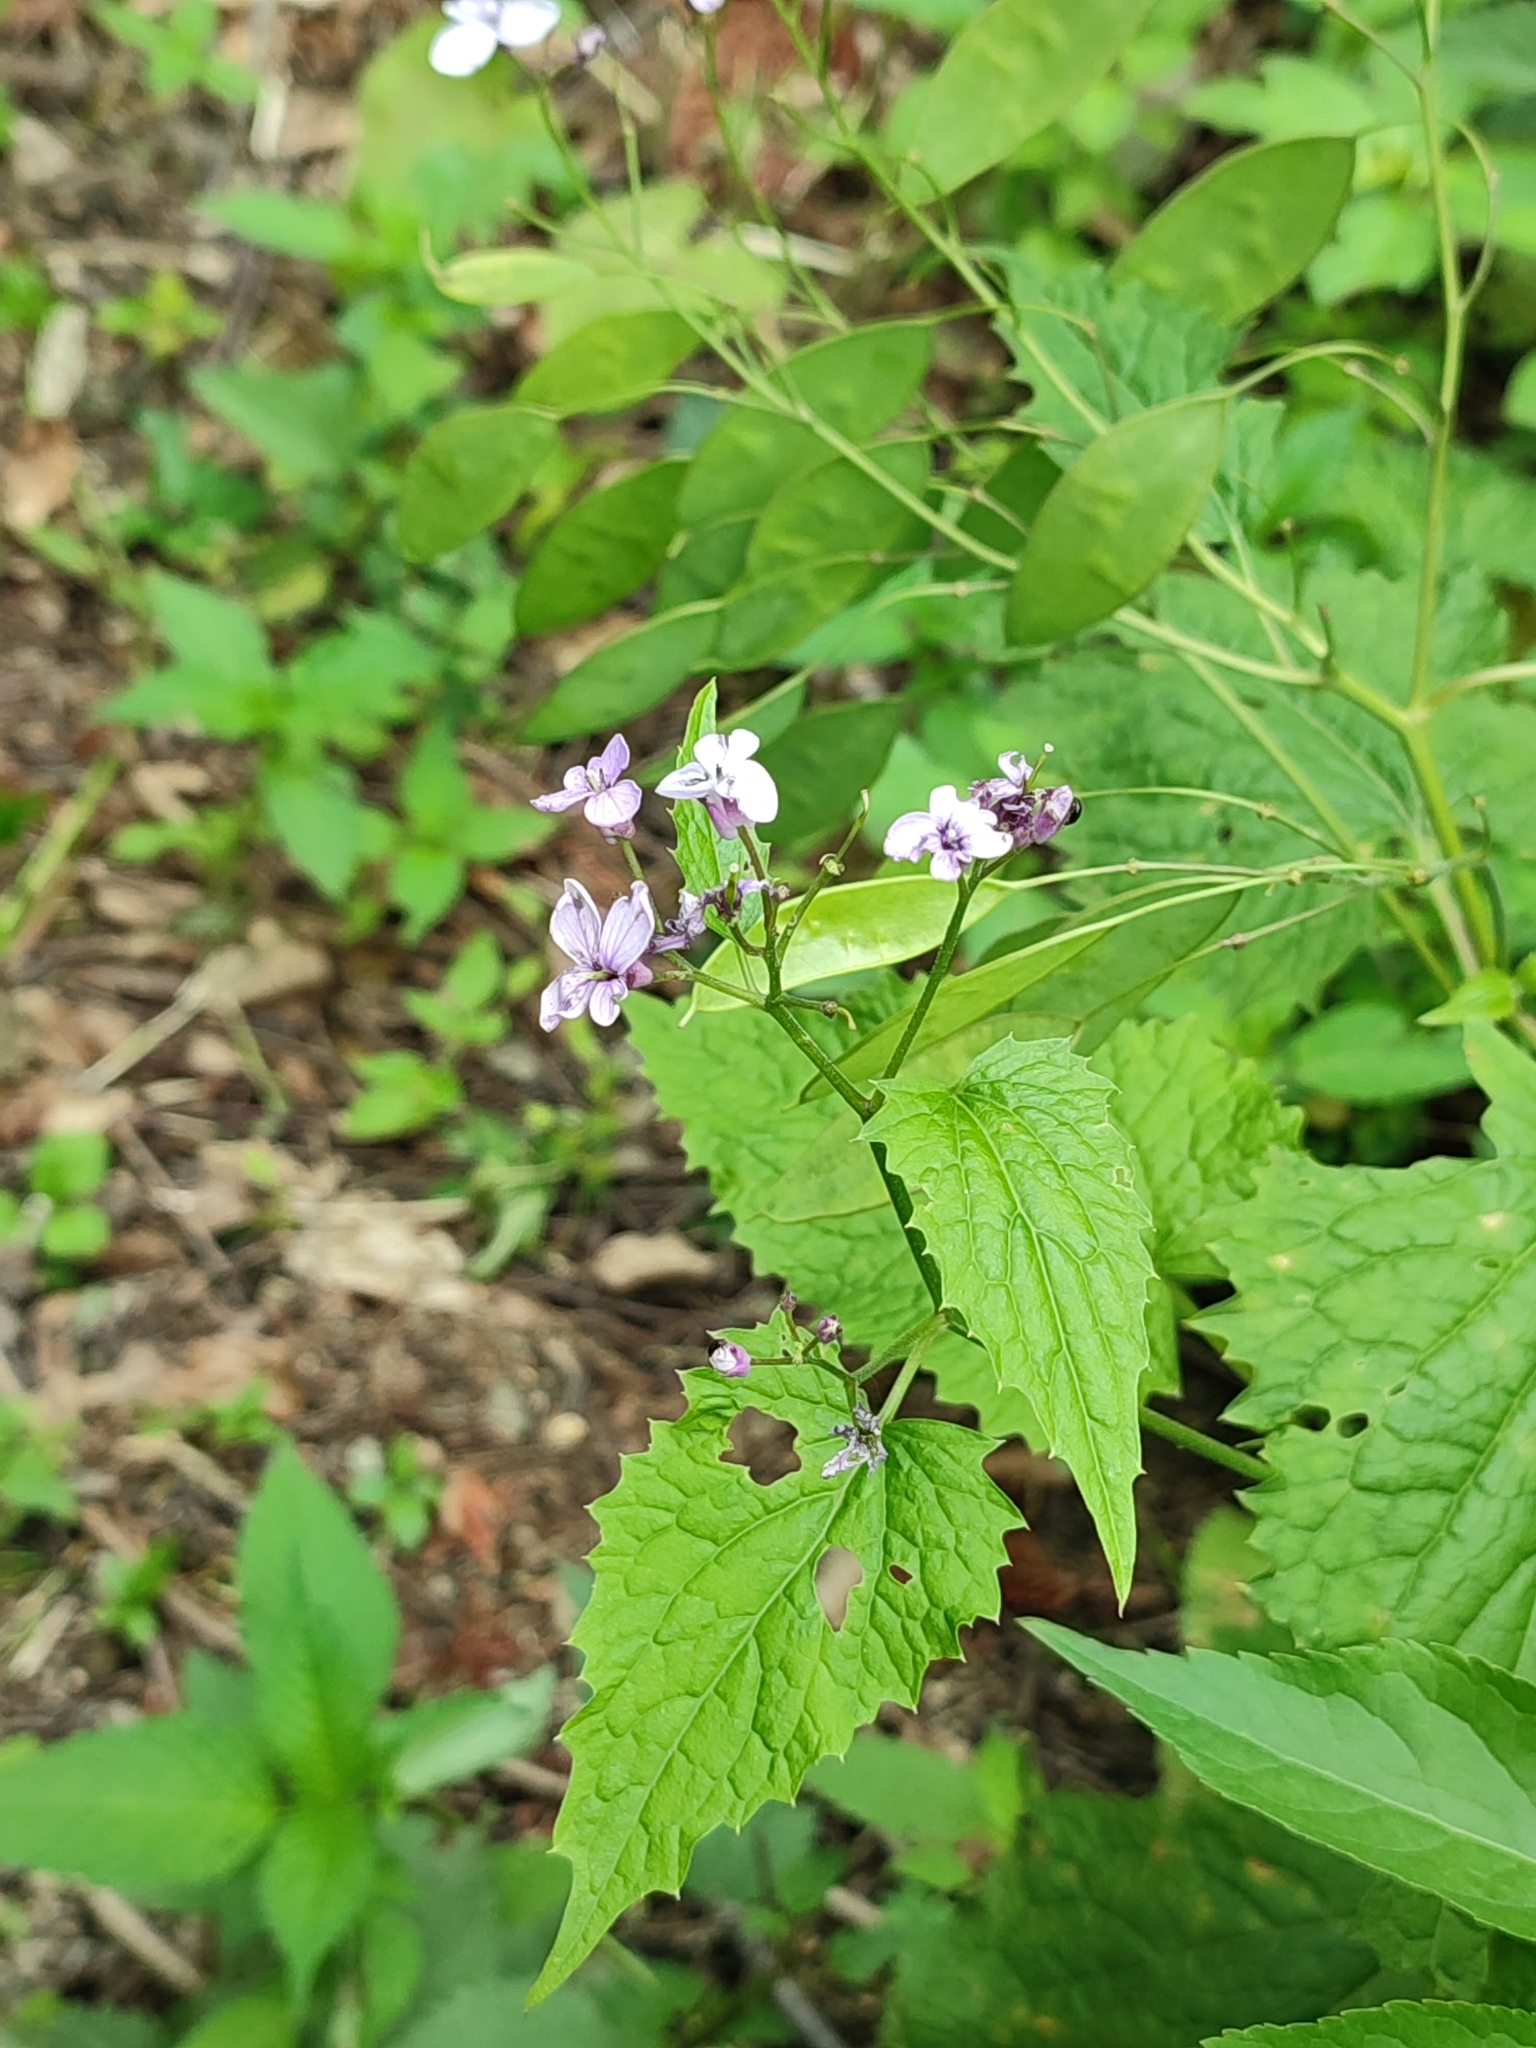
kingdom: Plantae
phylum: Tracheophyta
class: Magnoliopsida
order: Brassicales
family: Brassicaceae
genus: Lunaria
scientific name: Lunaria rediviva
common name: Perennial honesty
